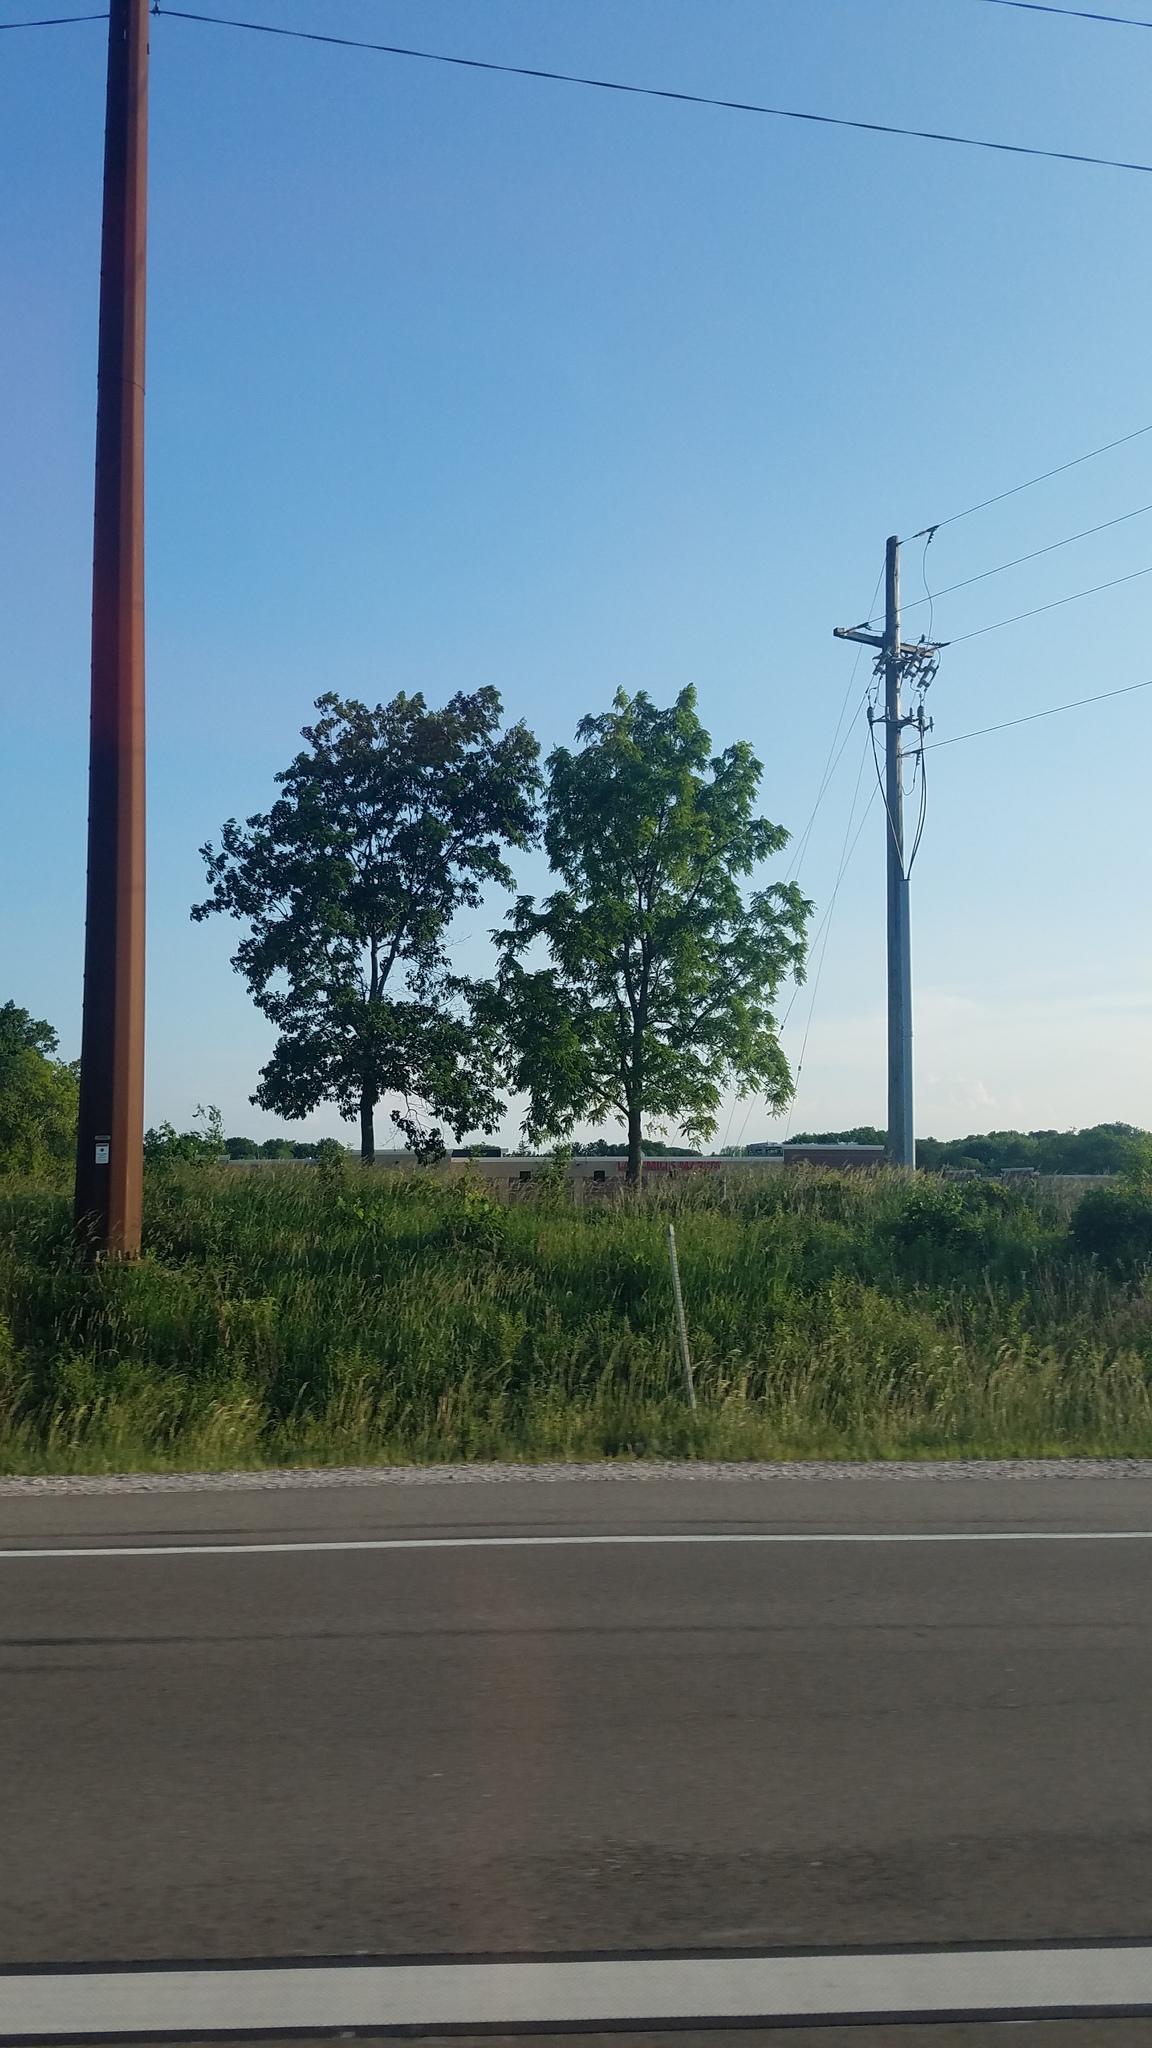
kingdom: Plantae
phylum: Tracheophyta
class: Magnoliopsida
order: Sapindales
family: Sapindaceae
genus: Acer
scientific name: Acer negundo
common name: Ashleaf maple
